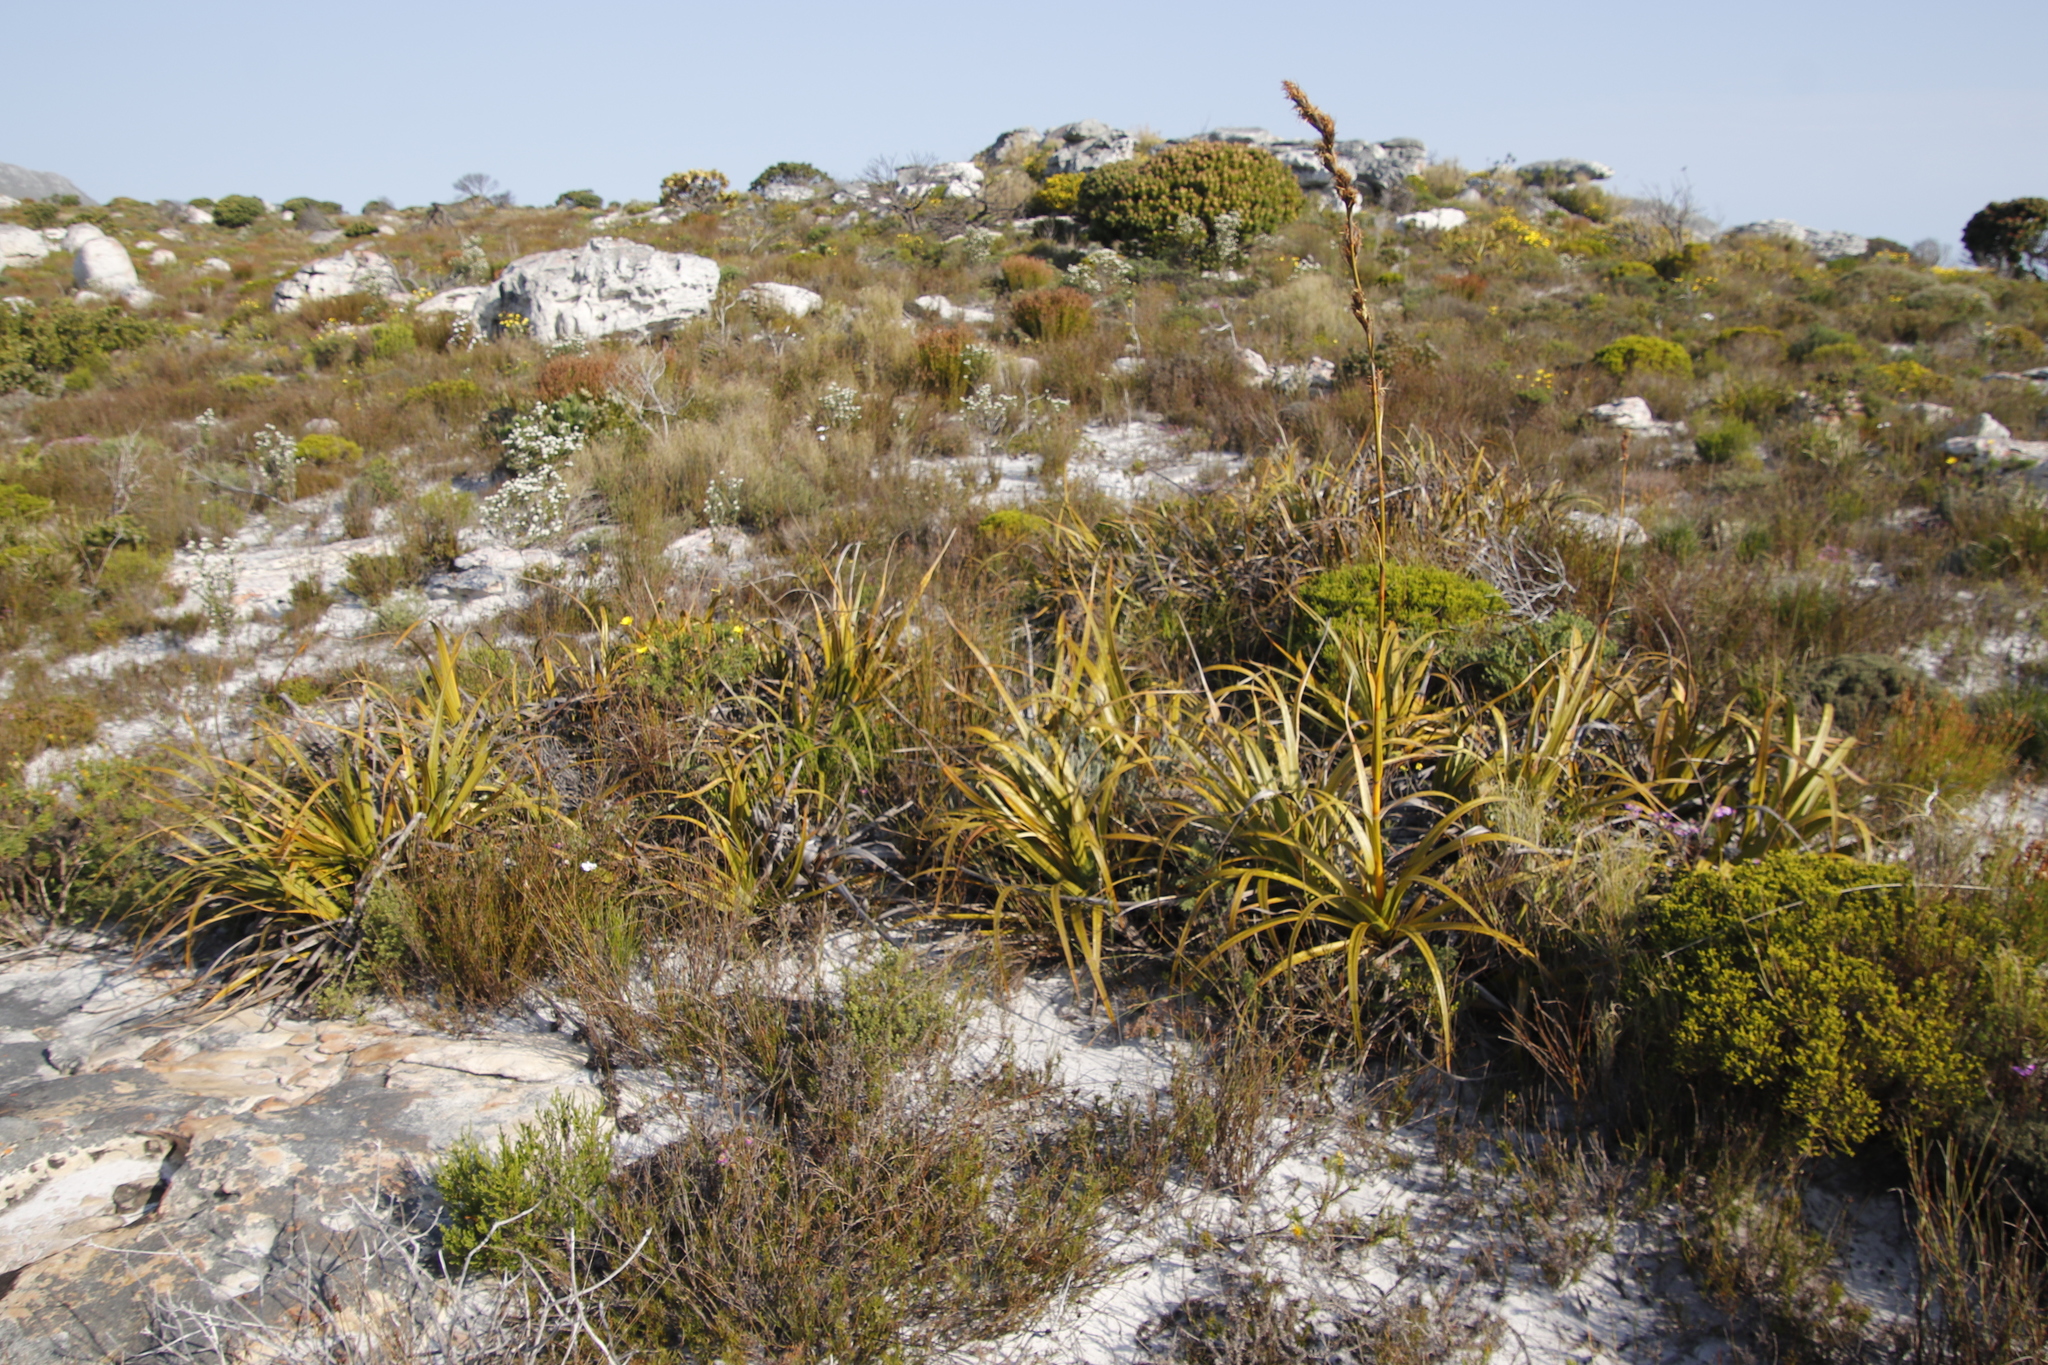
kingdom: Plantae
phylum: Tracheophyta
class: Liliopsida
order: Poales
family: Cyperaceae
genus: Tetraria
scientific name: Tetraria thermalis
